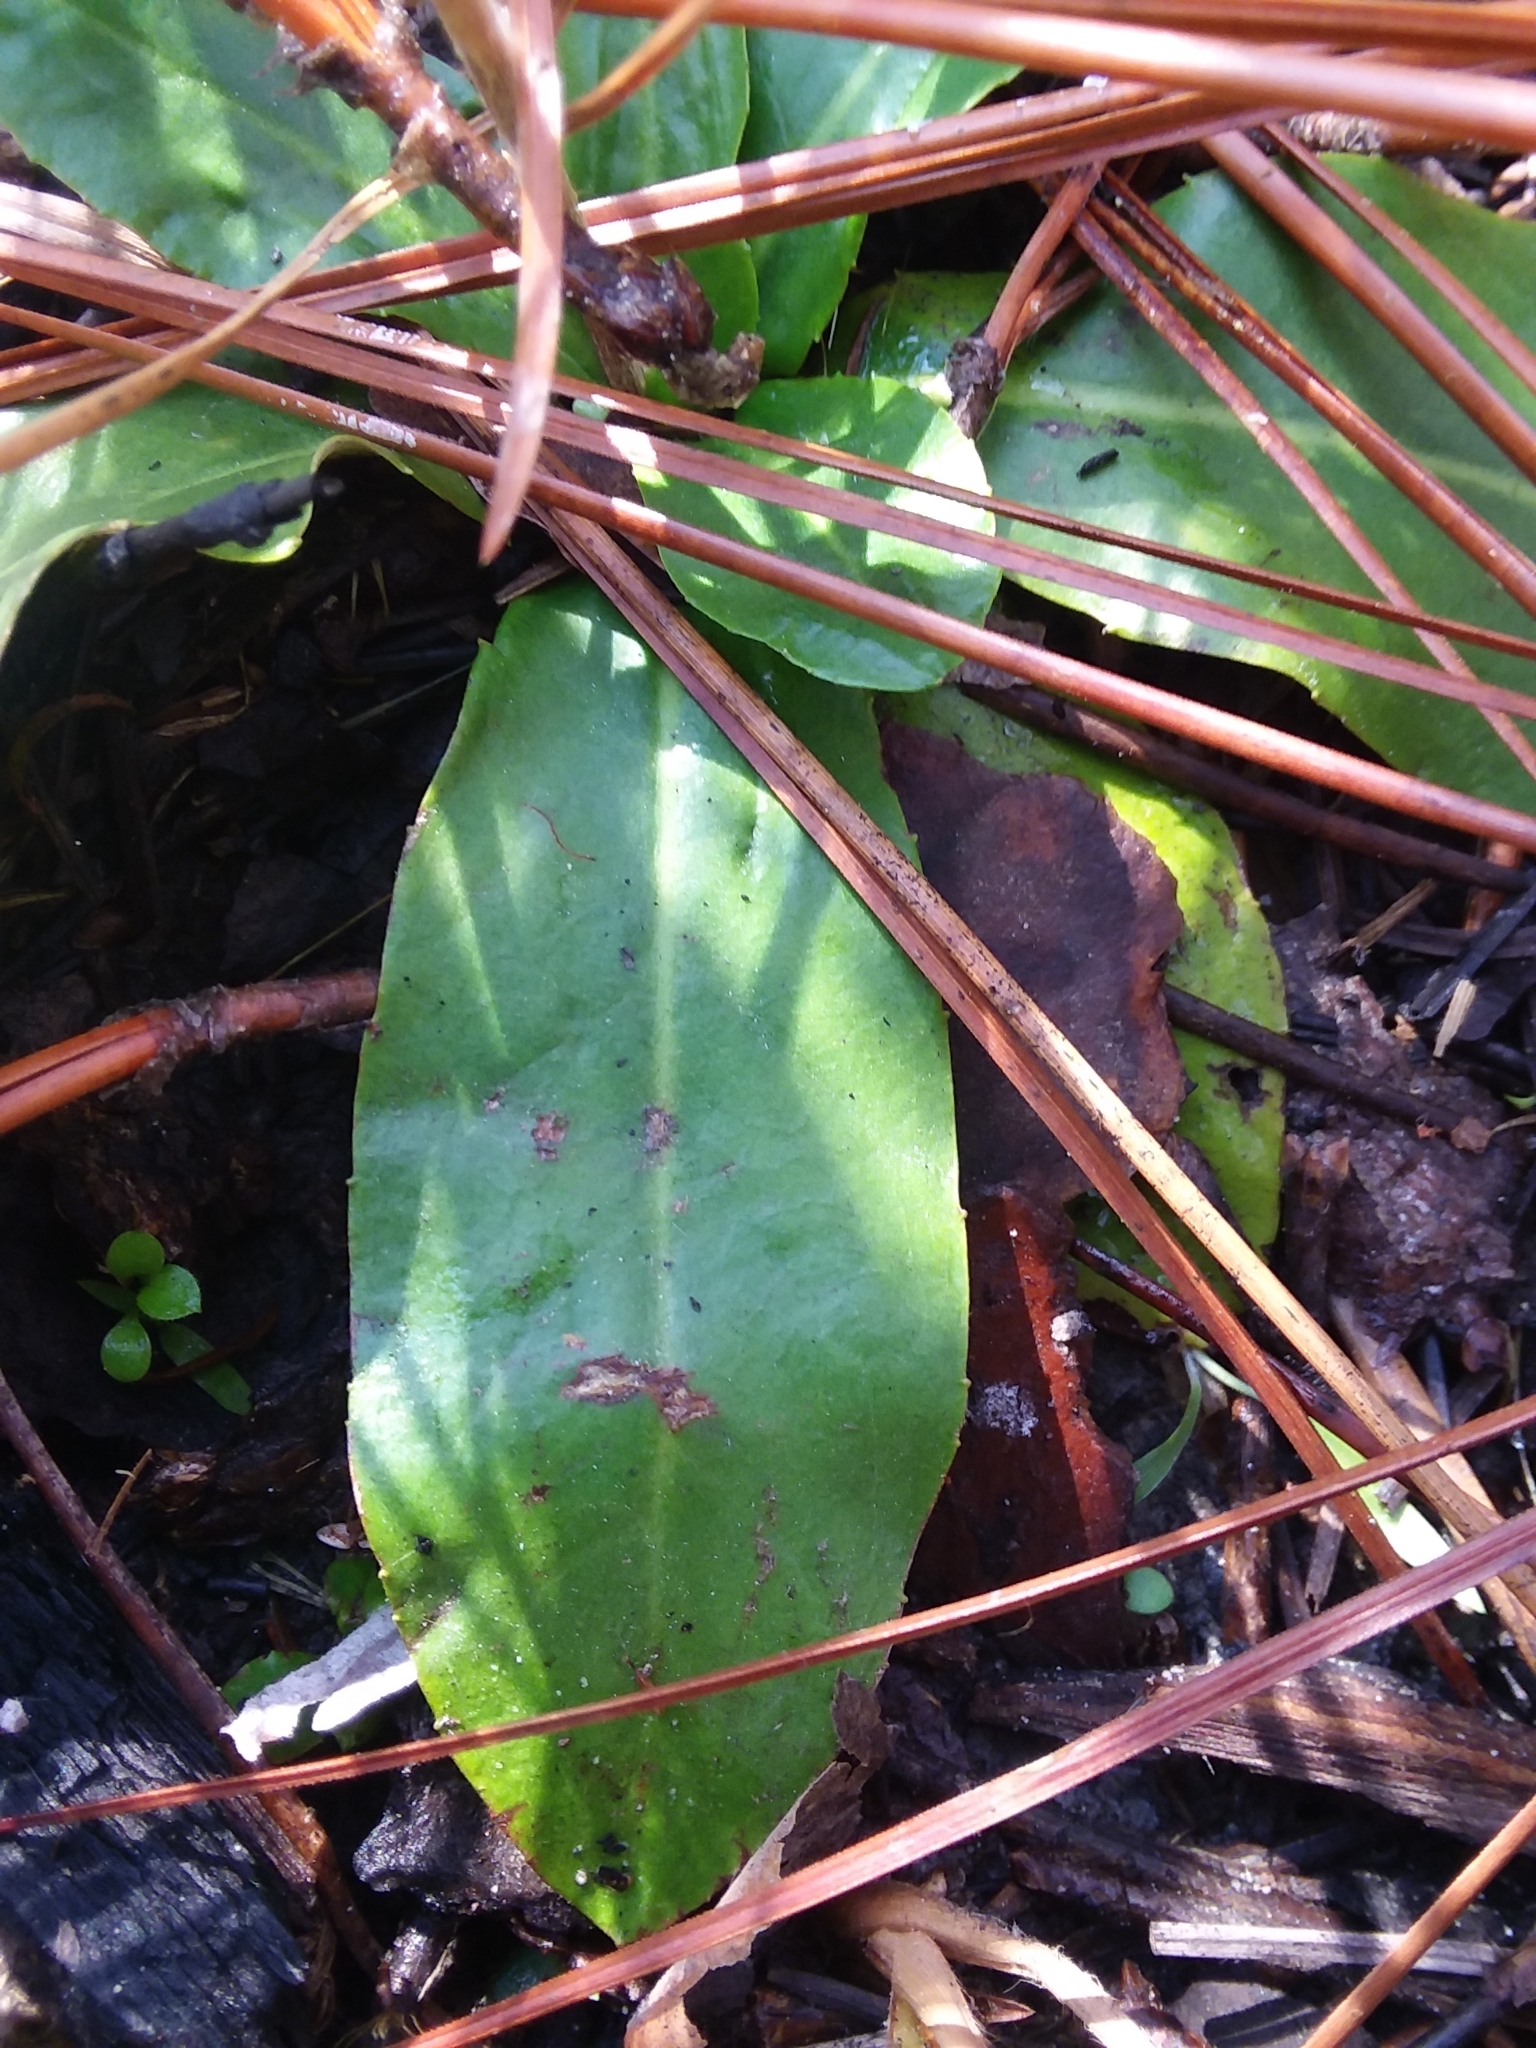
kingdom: Plantae
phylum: Tracheophyta
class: Magnoliopsida
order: Asterales
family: Asteraceae
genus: Chaptalia
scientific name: Chaptalia tomentosa
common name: Woolly sunbonnet
